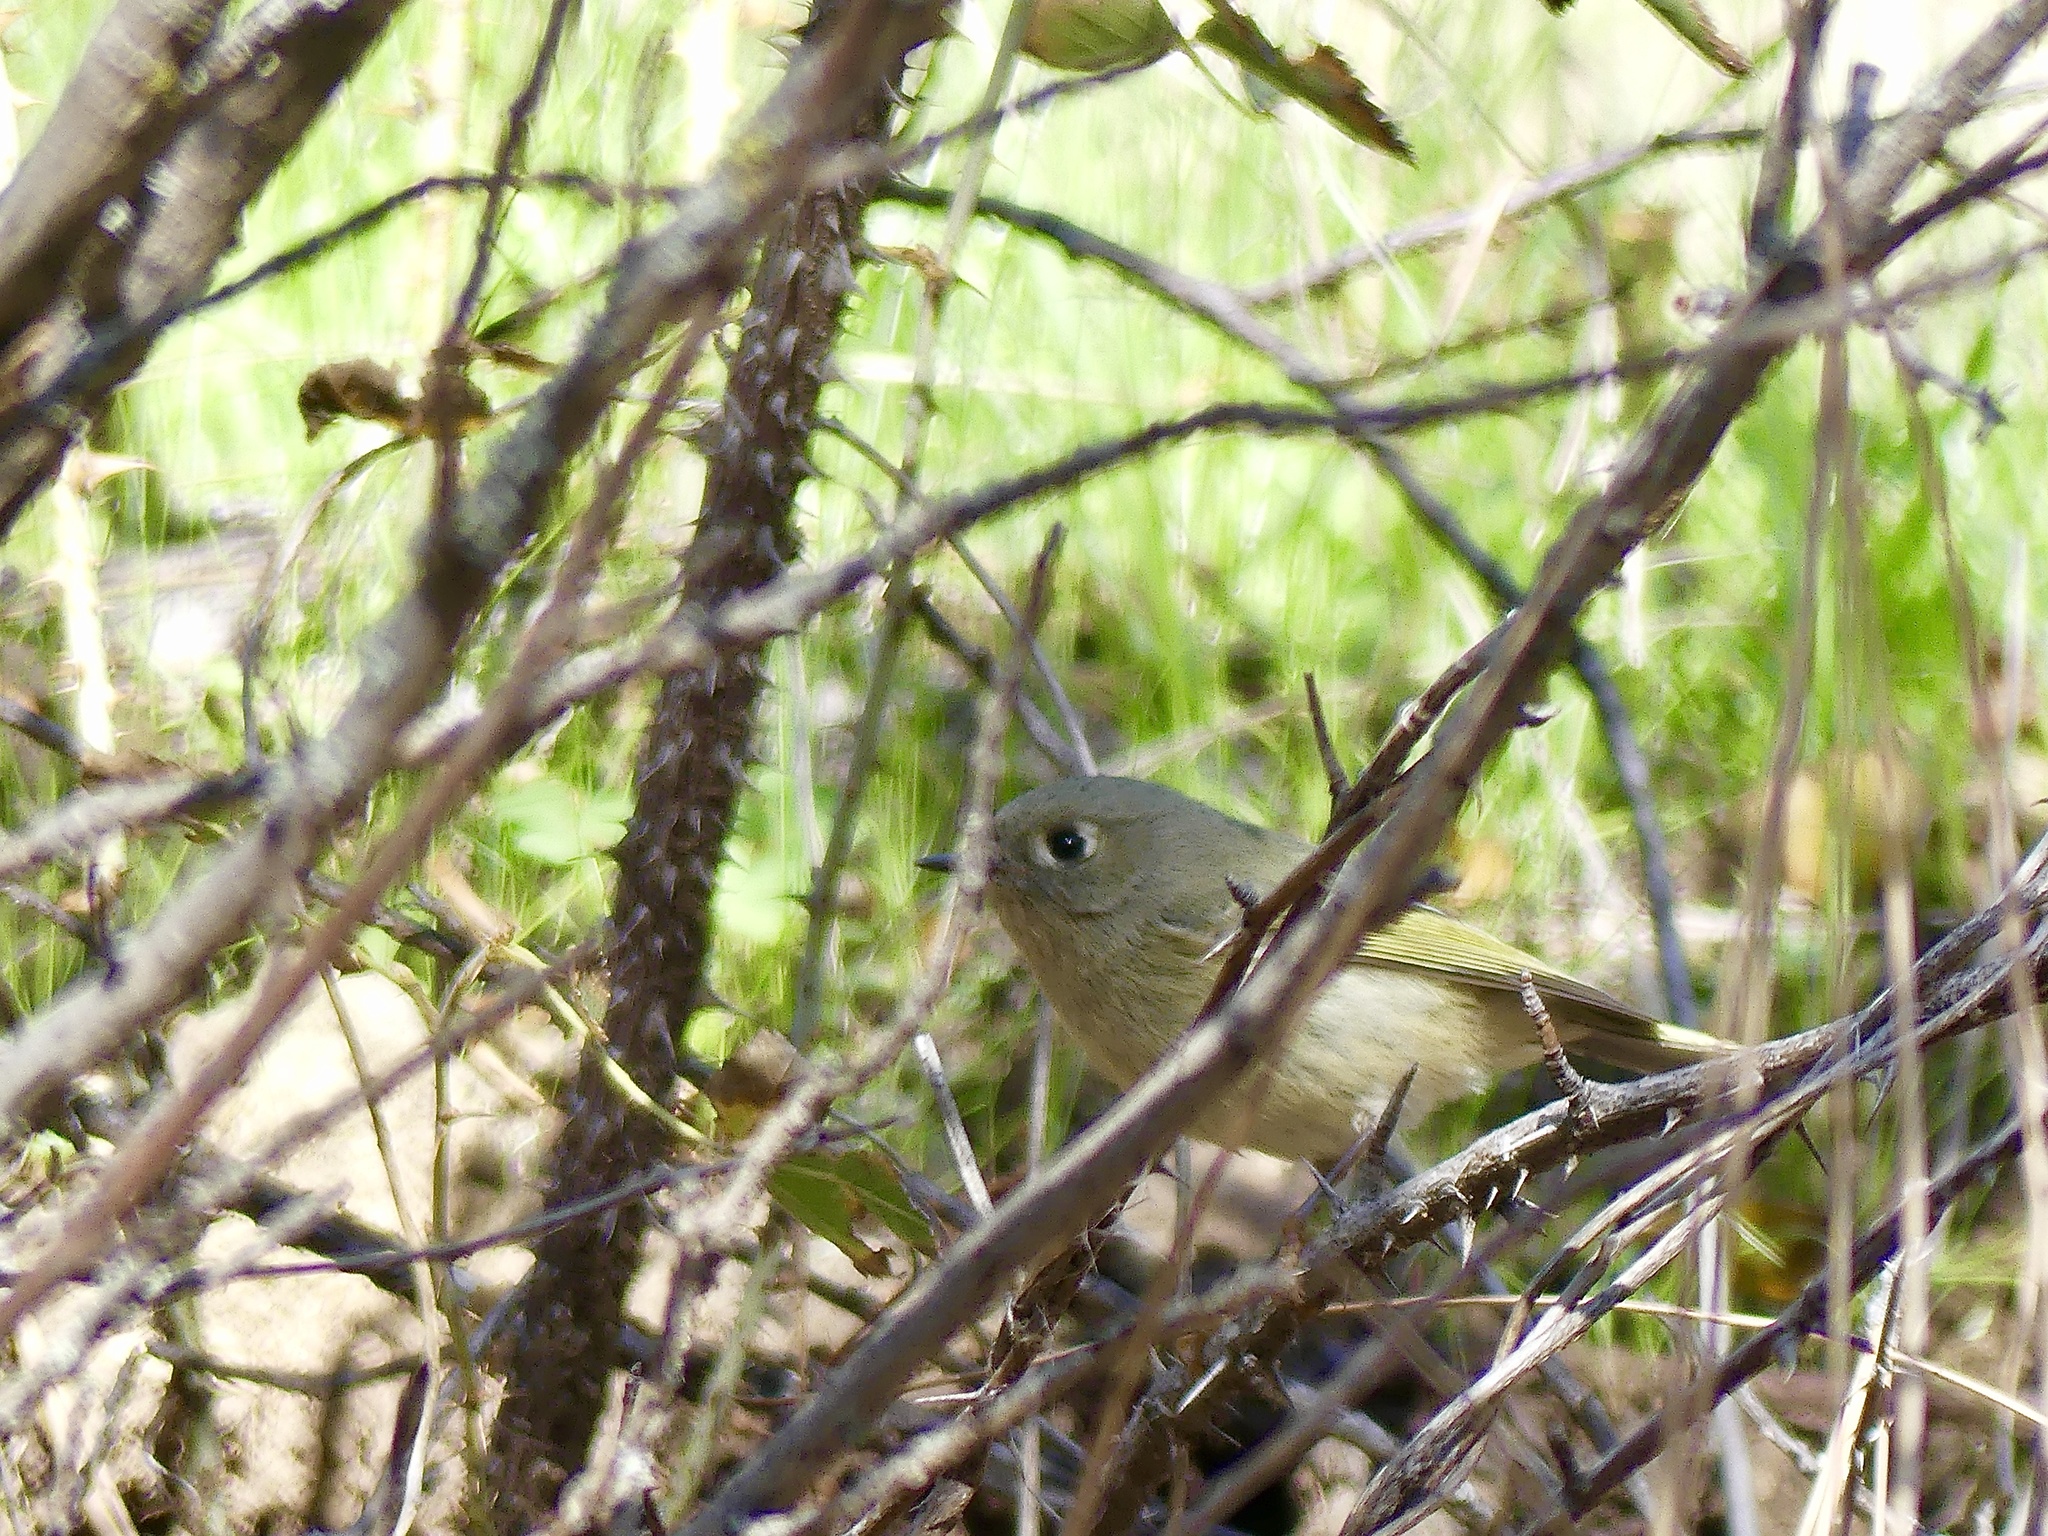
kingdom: Animalia
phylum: Chordata
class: Aves
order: Passeriformes
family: Regulidae
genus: Regulus
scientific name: Regulus calendula
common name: Ruby-crowned kinglet
